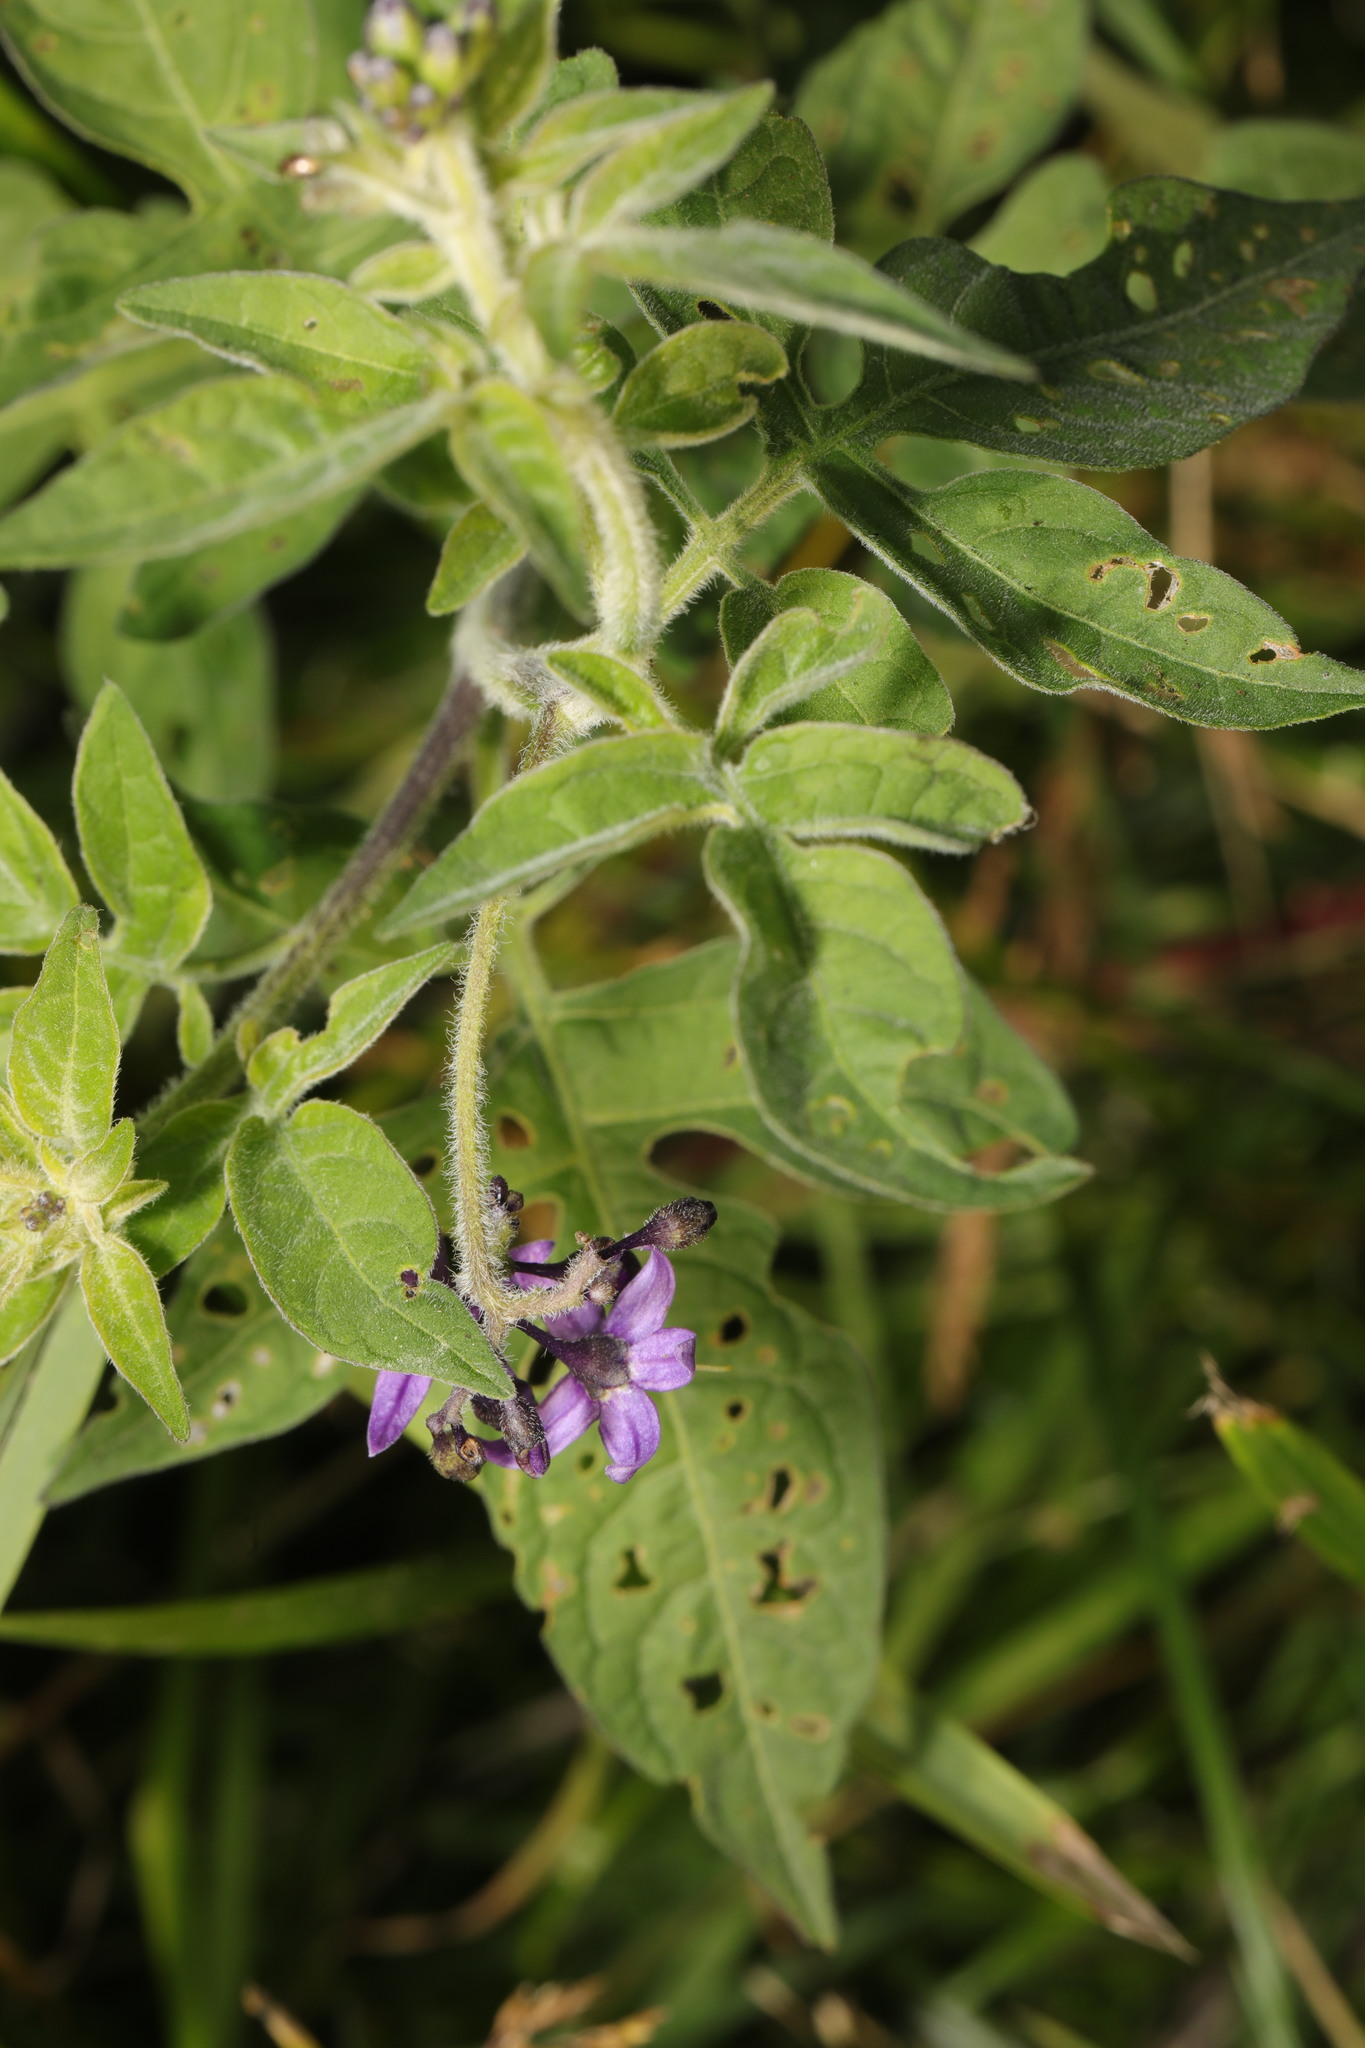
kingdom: Plantae
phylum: Tracheophyta
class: Magnoliopsida
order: Solanales
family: Solanaceae
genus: Solanum
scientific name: Solanum dulcamara
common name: Climbing nightshade
